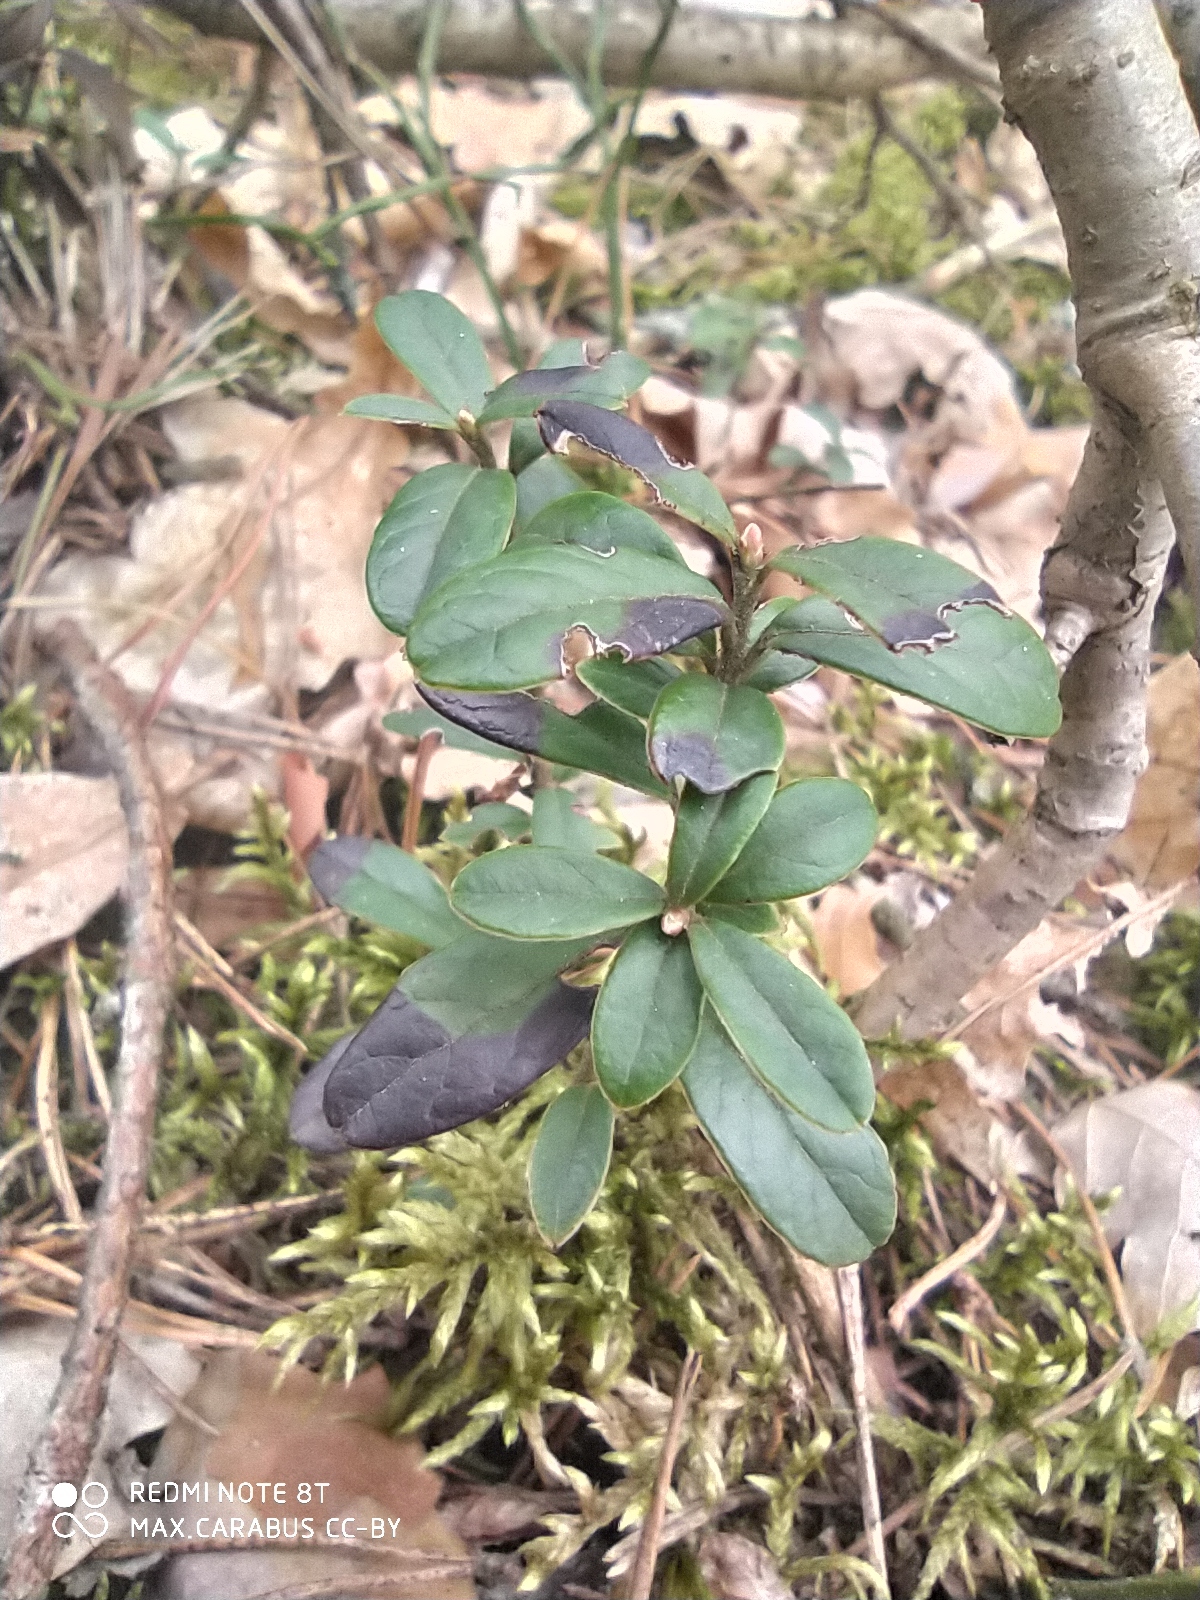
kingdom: Plantae
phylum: Tracheophyta
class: Magnoliopsida
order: Ericales
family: Ericaceae
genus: Vaccinium
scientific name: Vaccinium vitis-idaea
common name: Cowberry
